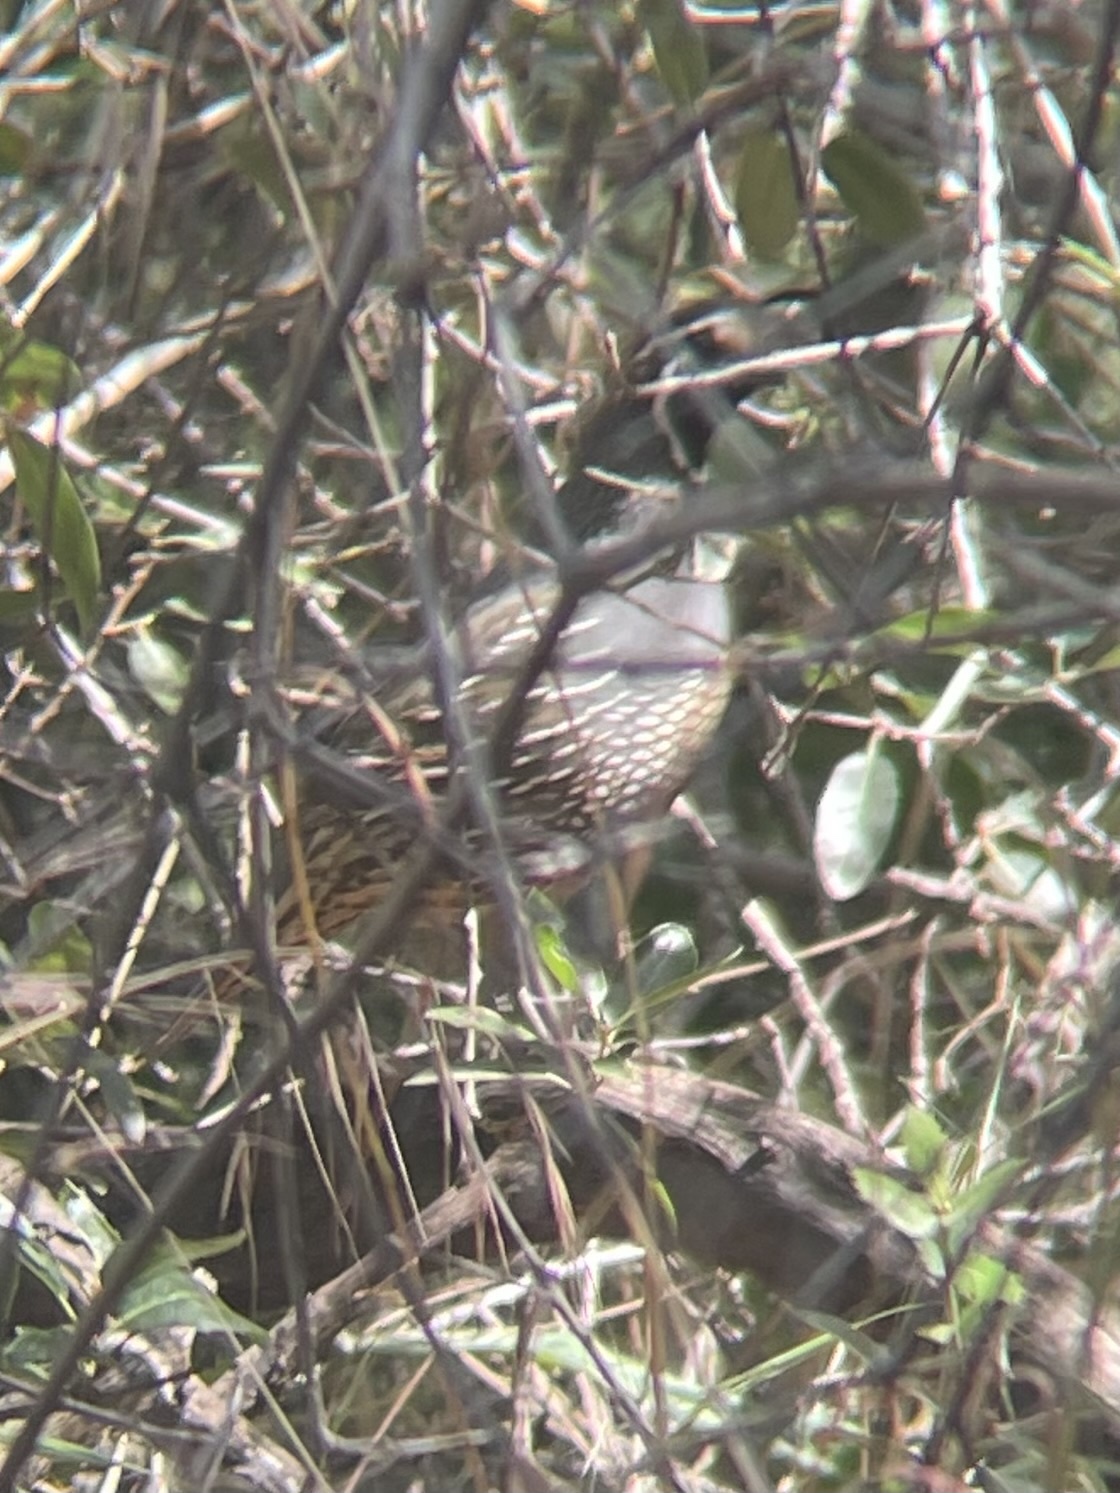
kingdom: Animalia
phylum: Chordata
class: Aves
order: Galliformes
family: Odontophoridae
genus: Callipepla
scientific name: Callipepla californica
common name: California quail
